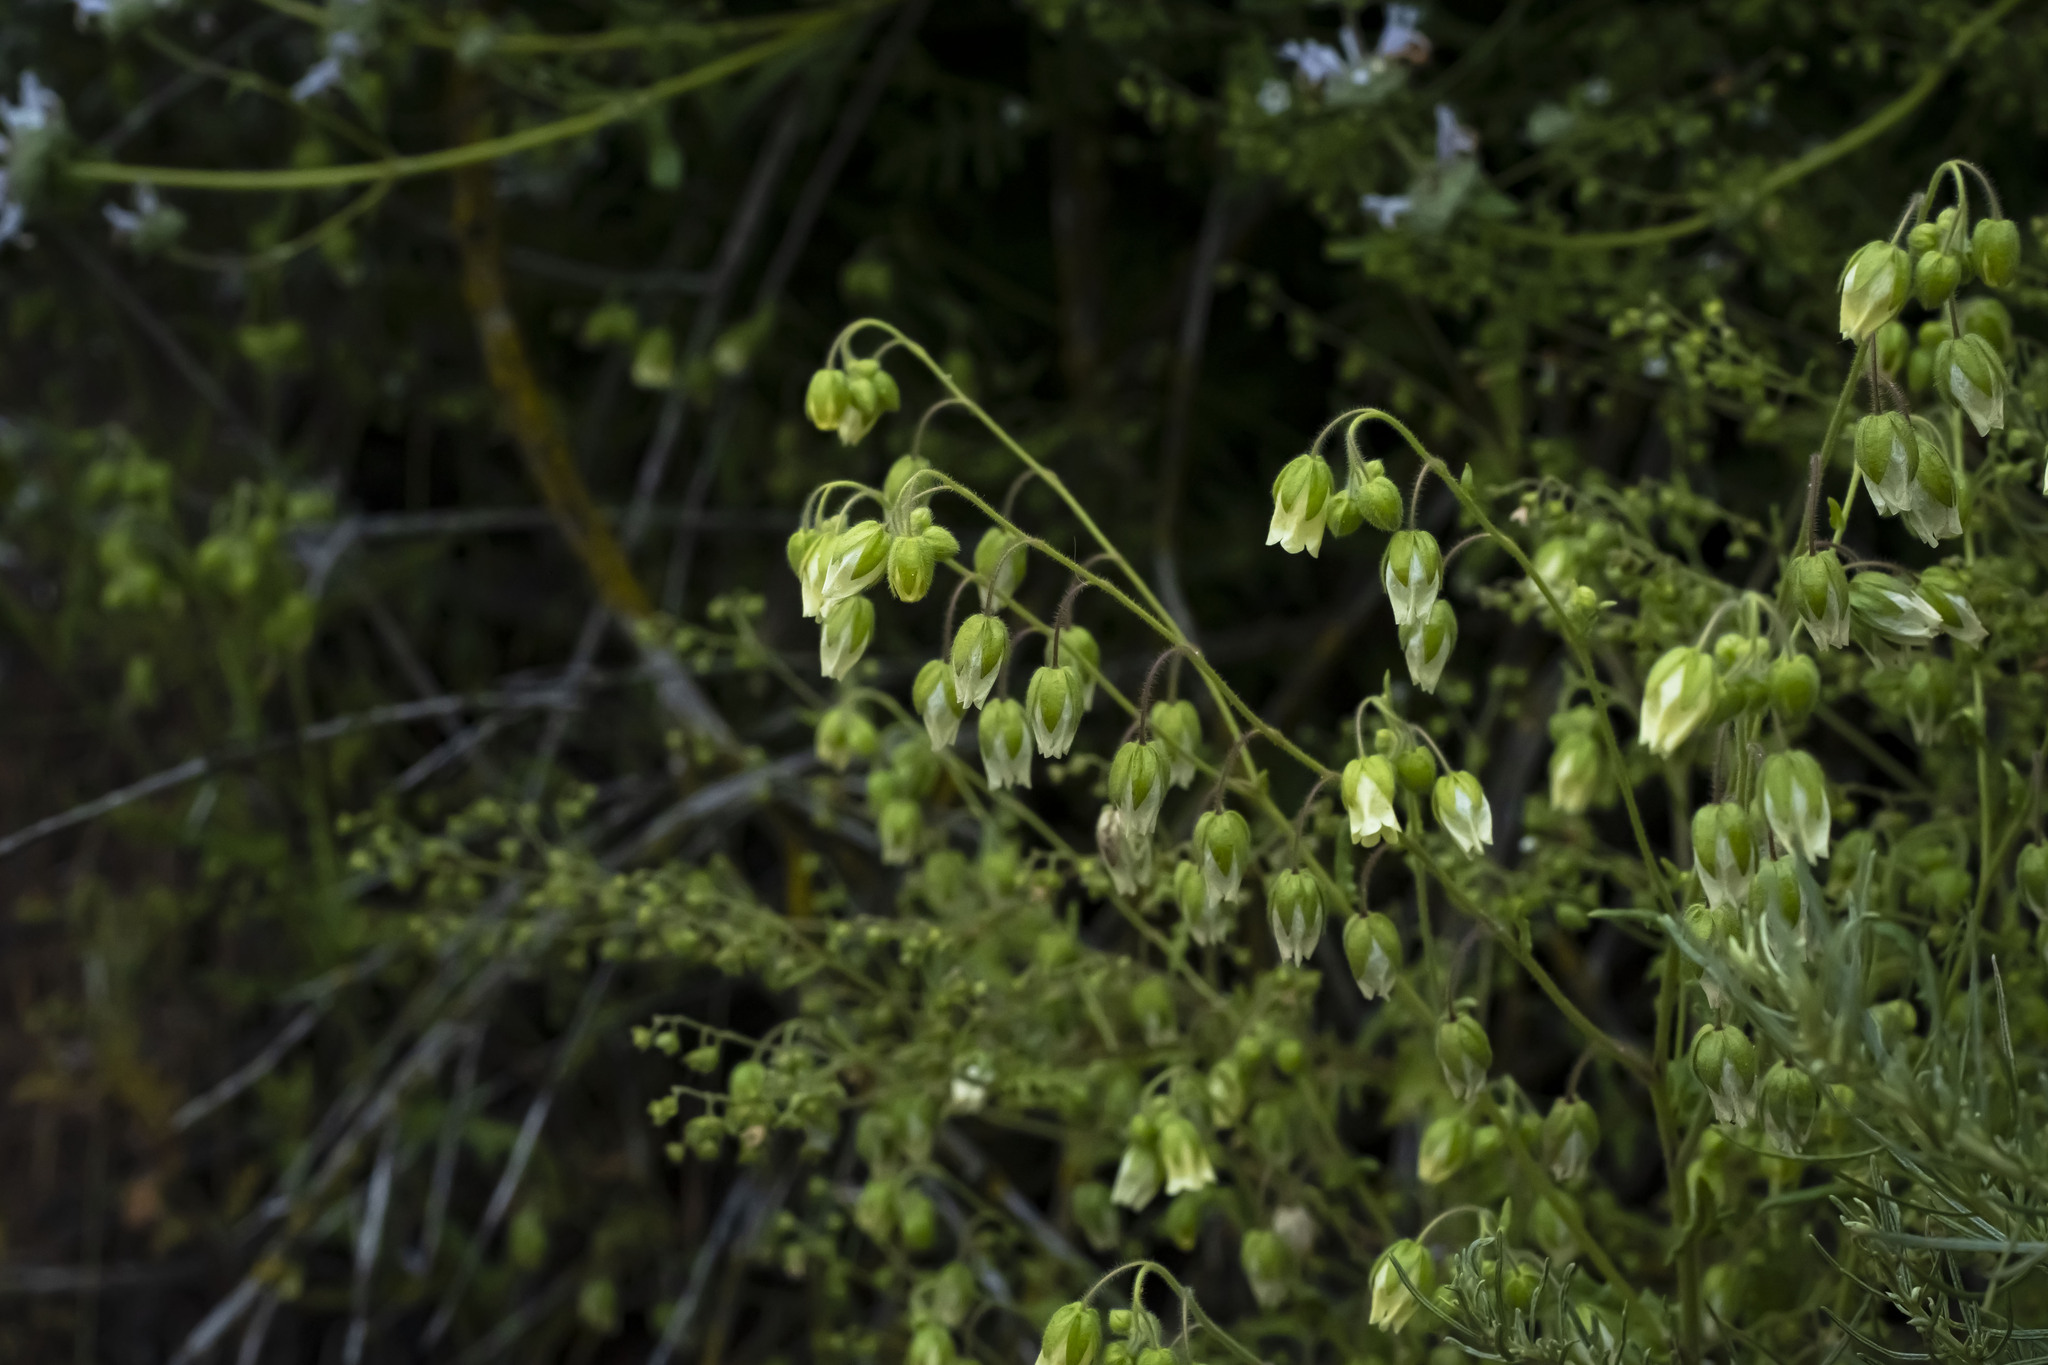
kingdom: Plantae
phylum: Tracheophyta
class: Magnoliopsida
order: Boraginales
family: Hydrophyllaceae
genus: Emmenanthe
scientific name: Emmenanthe penduliflora
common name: Whispering-bells
